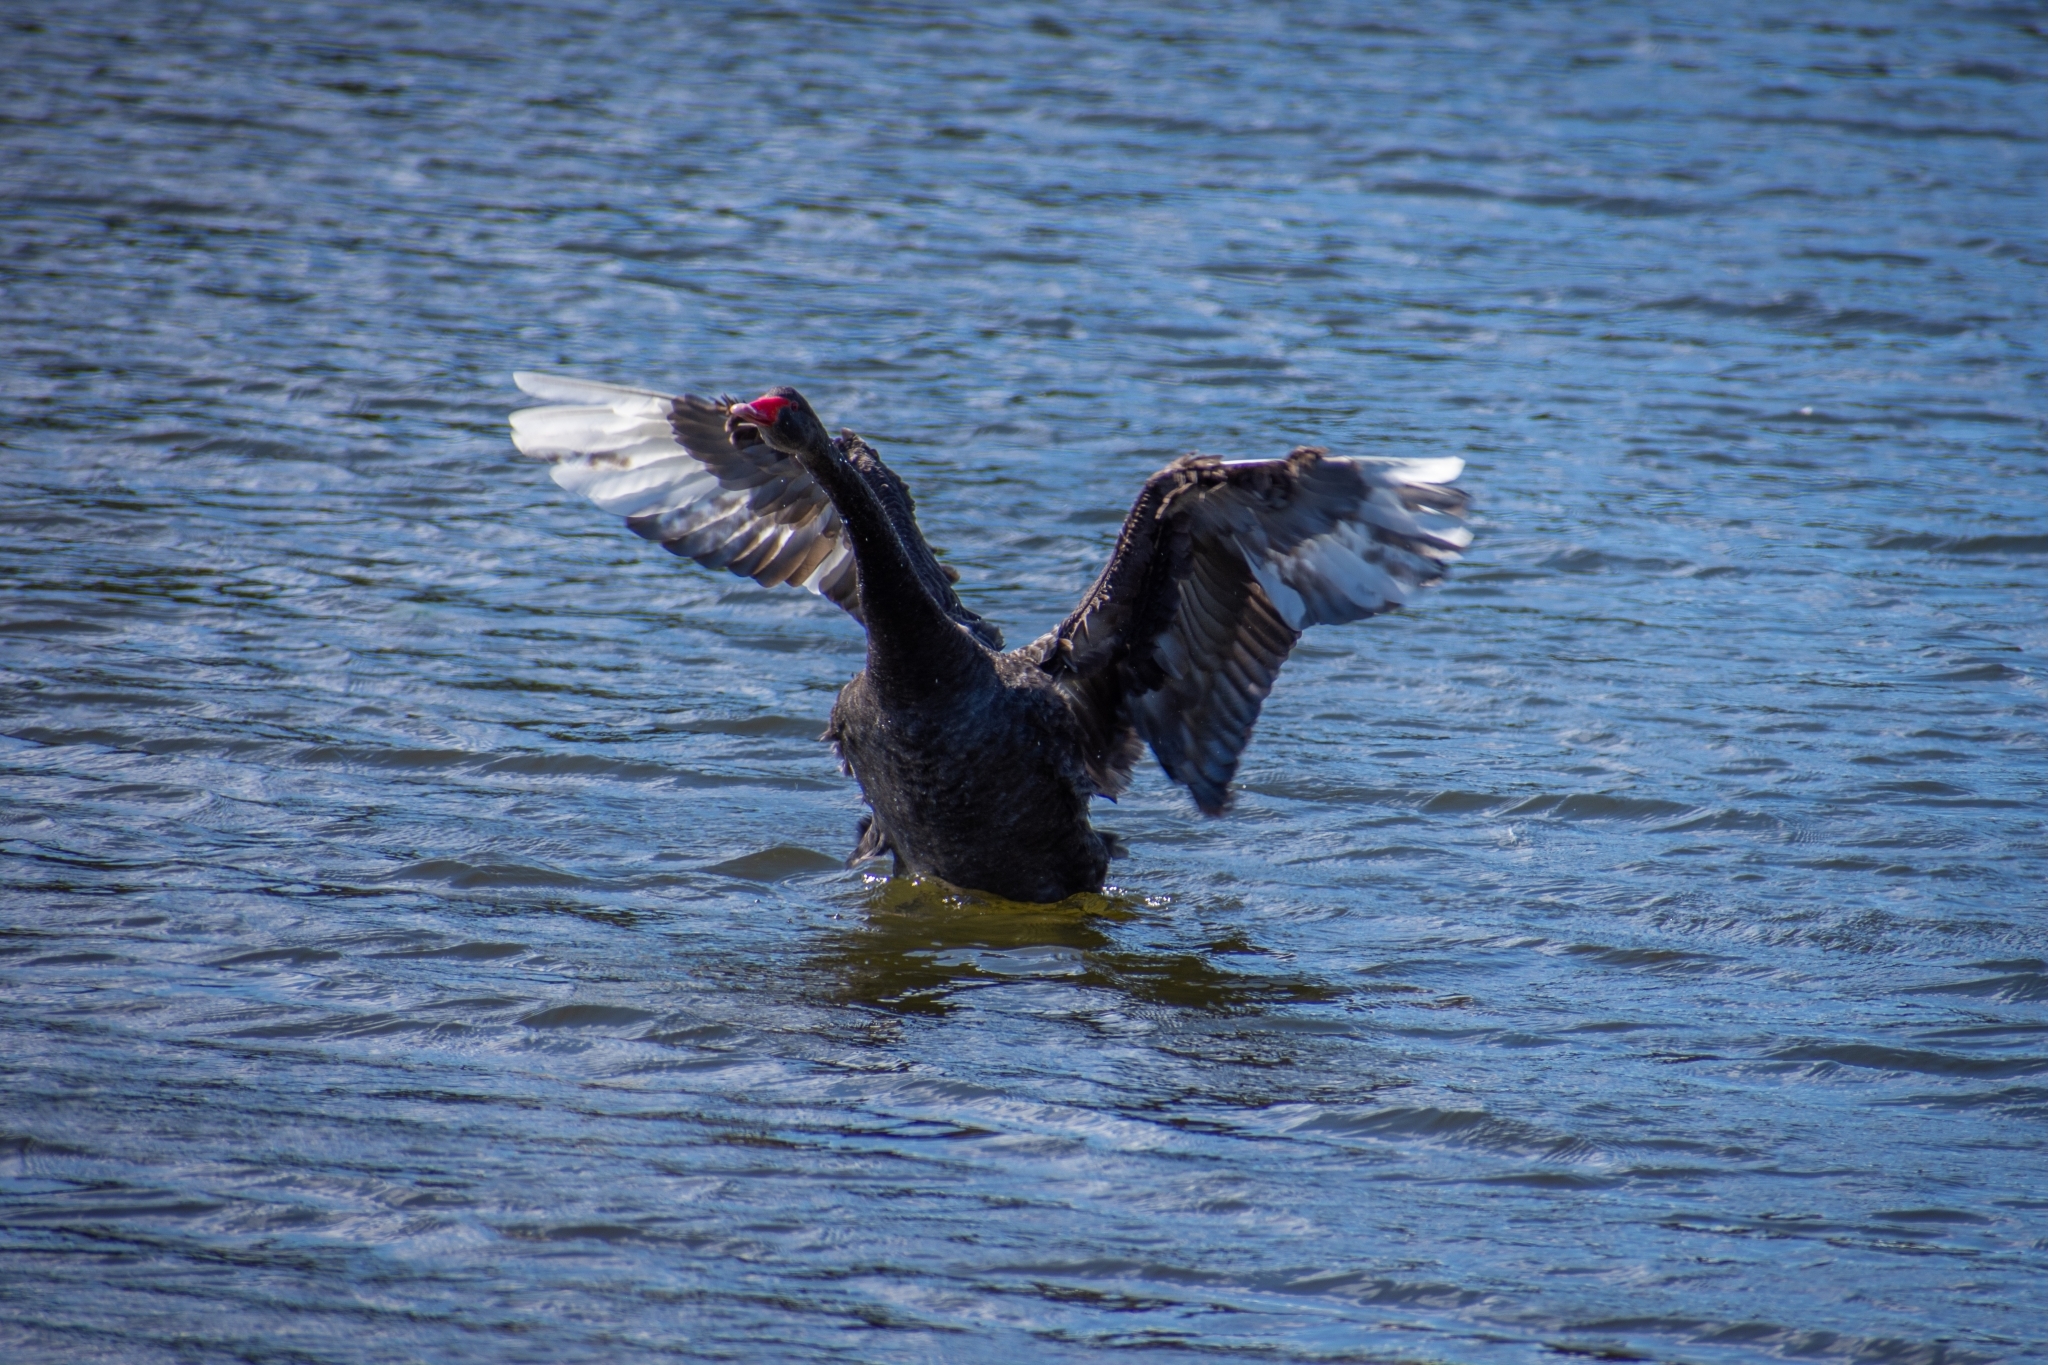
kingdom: Animalia
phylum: Chordata
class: Aves
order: Anseriformes
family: Anatidae
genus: Cygnus
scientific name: Cygnus atratus
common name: Black swan
